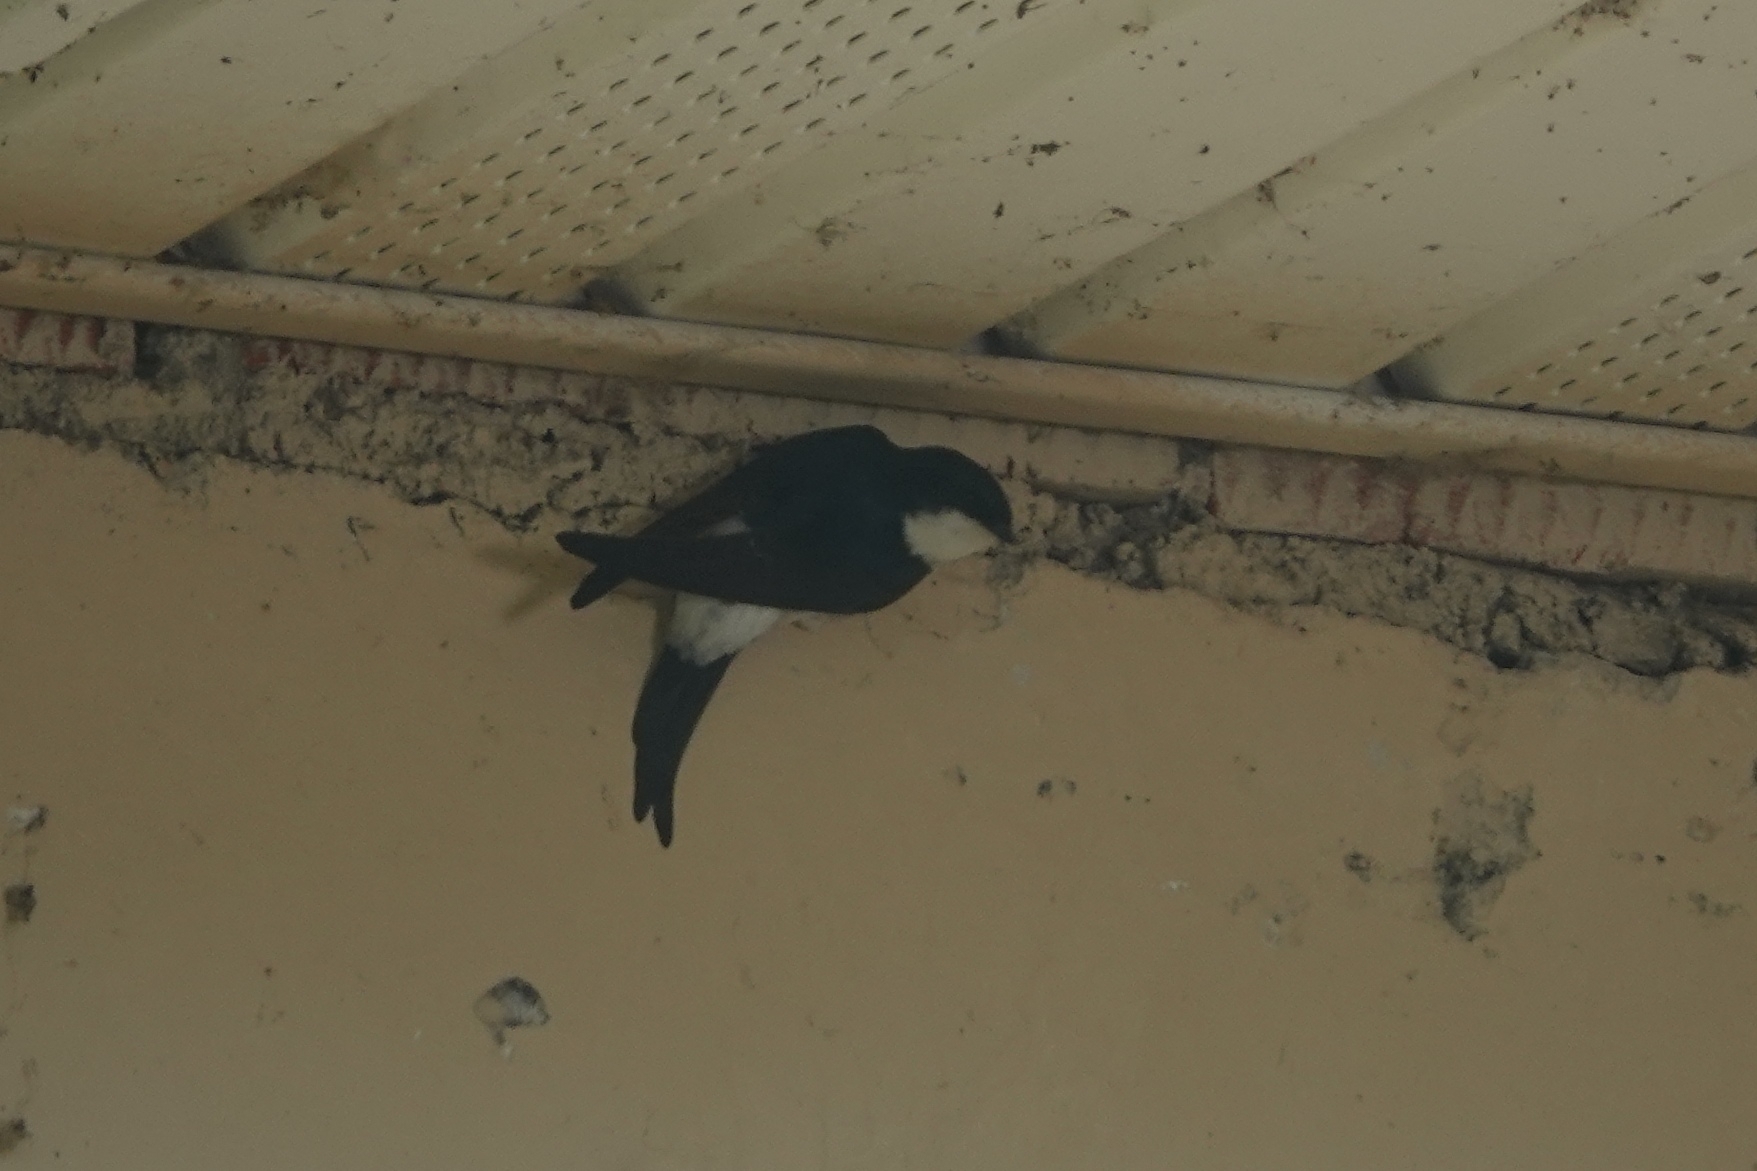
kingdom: Animalia
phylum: Chordata
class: Aves
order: Passeriformes
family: Hirundinidae
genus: Delichon
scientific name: Delichon urbicum
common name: Common house martin
